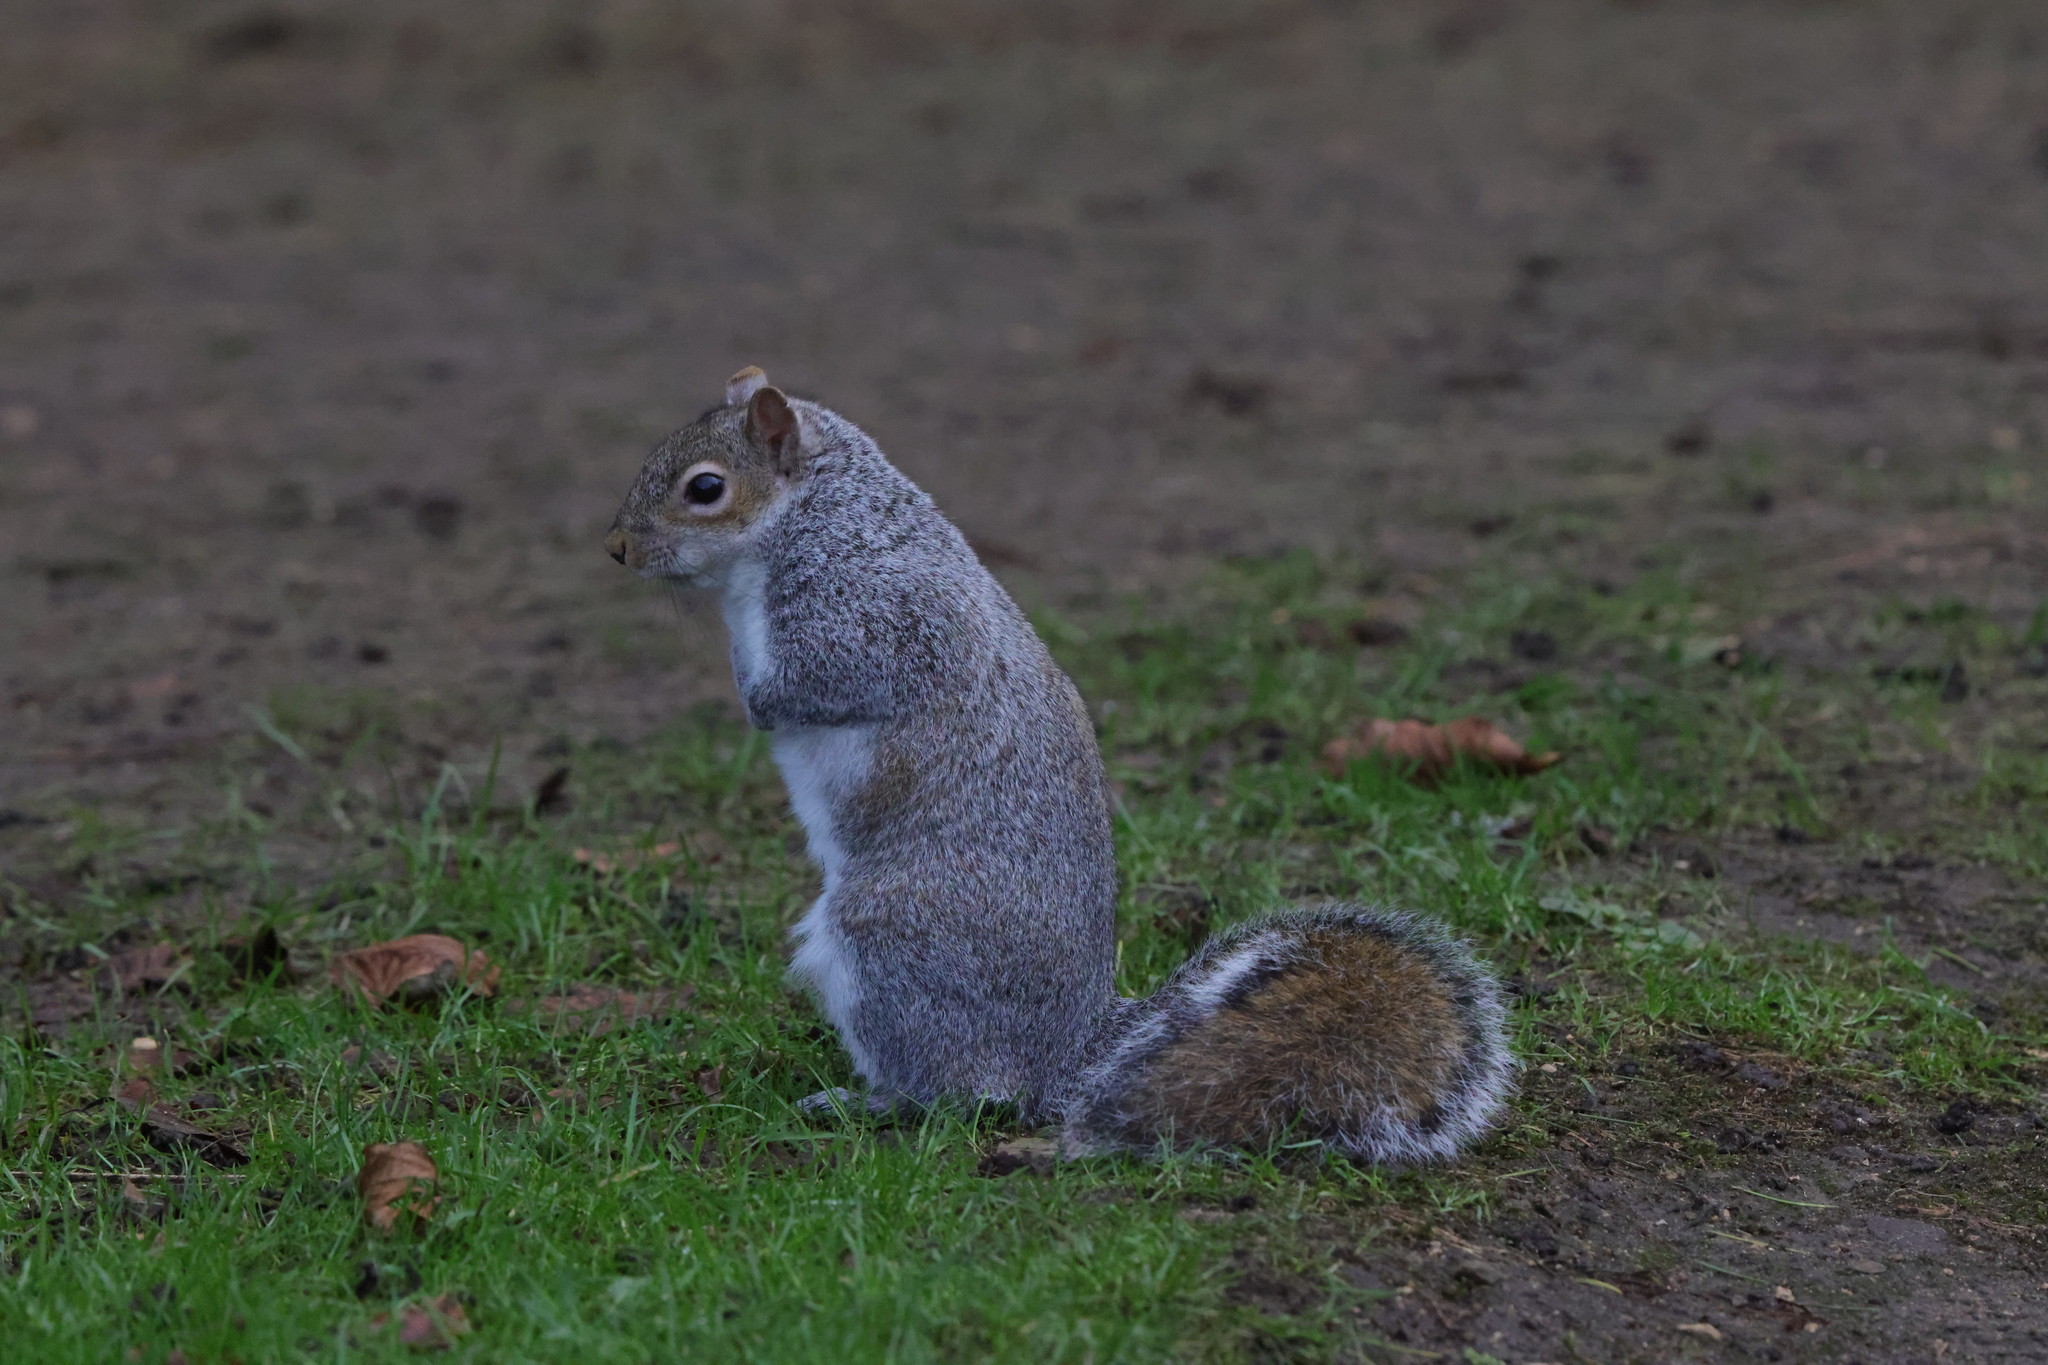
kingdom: Animalia
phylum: Chordata
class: Mammalia
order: Rodentia
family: Sciuridae
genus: Sciurus
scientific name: Sciurus carolinensis
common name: Eastern gray squirrel
